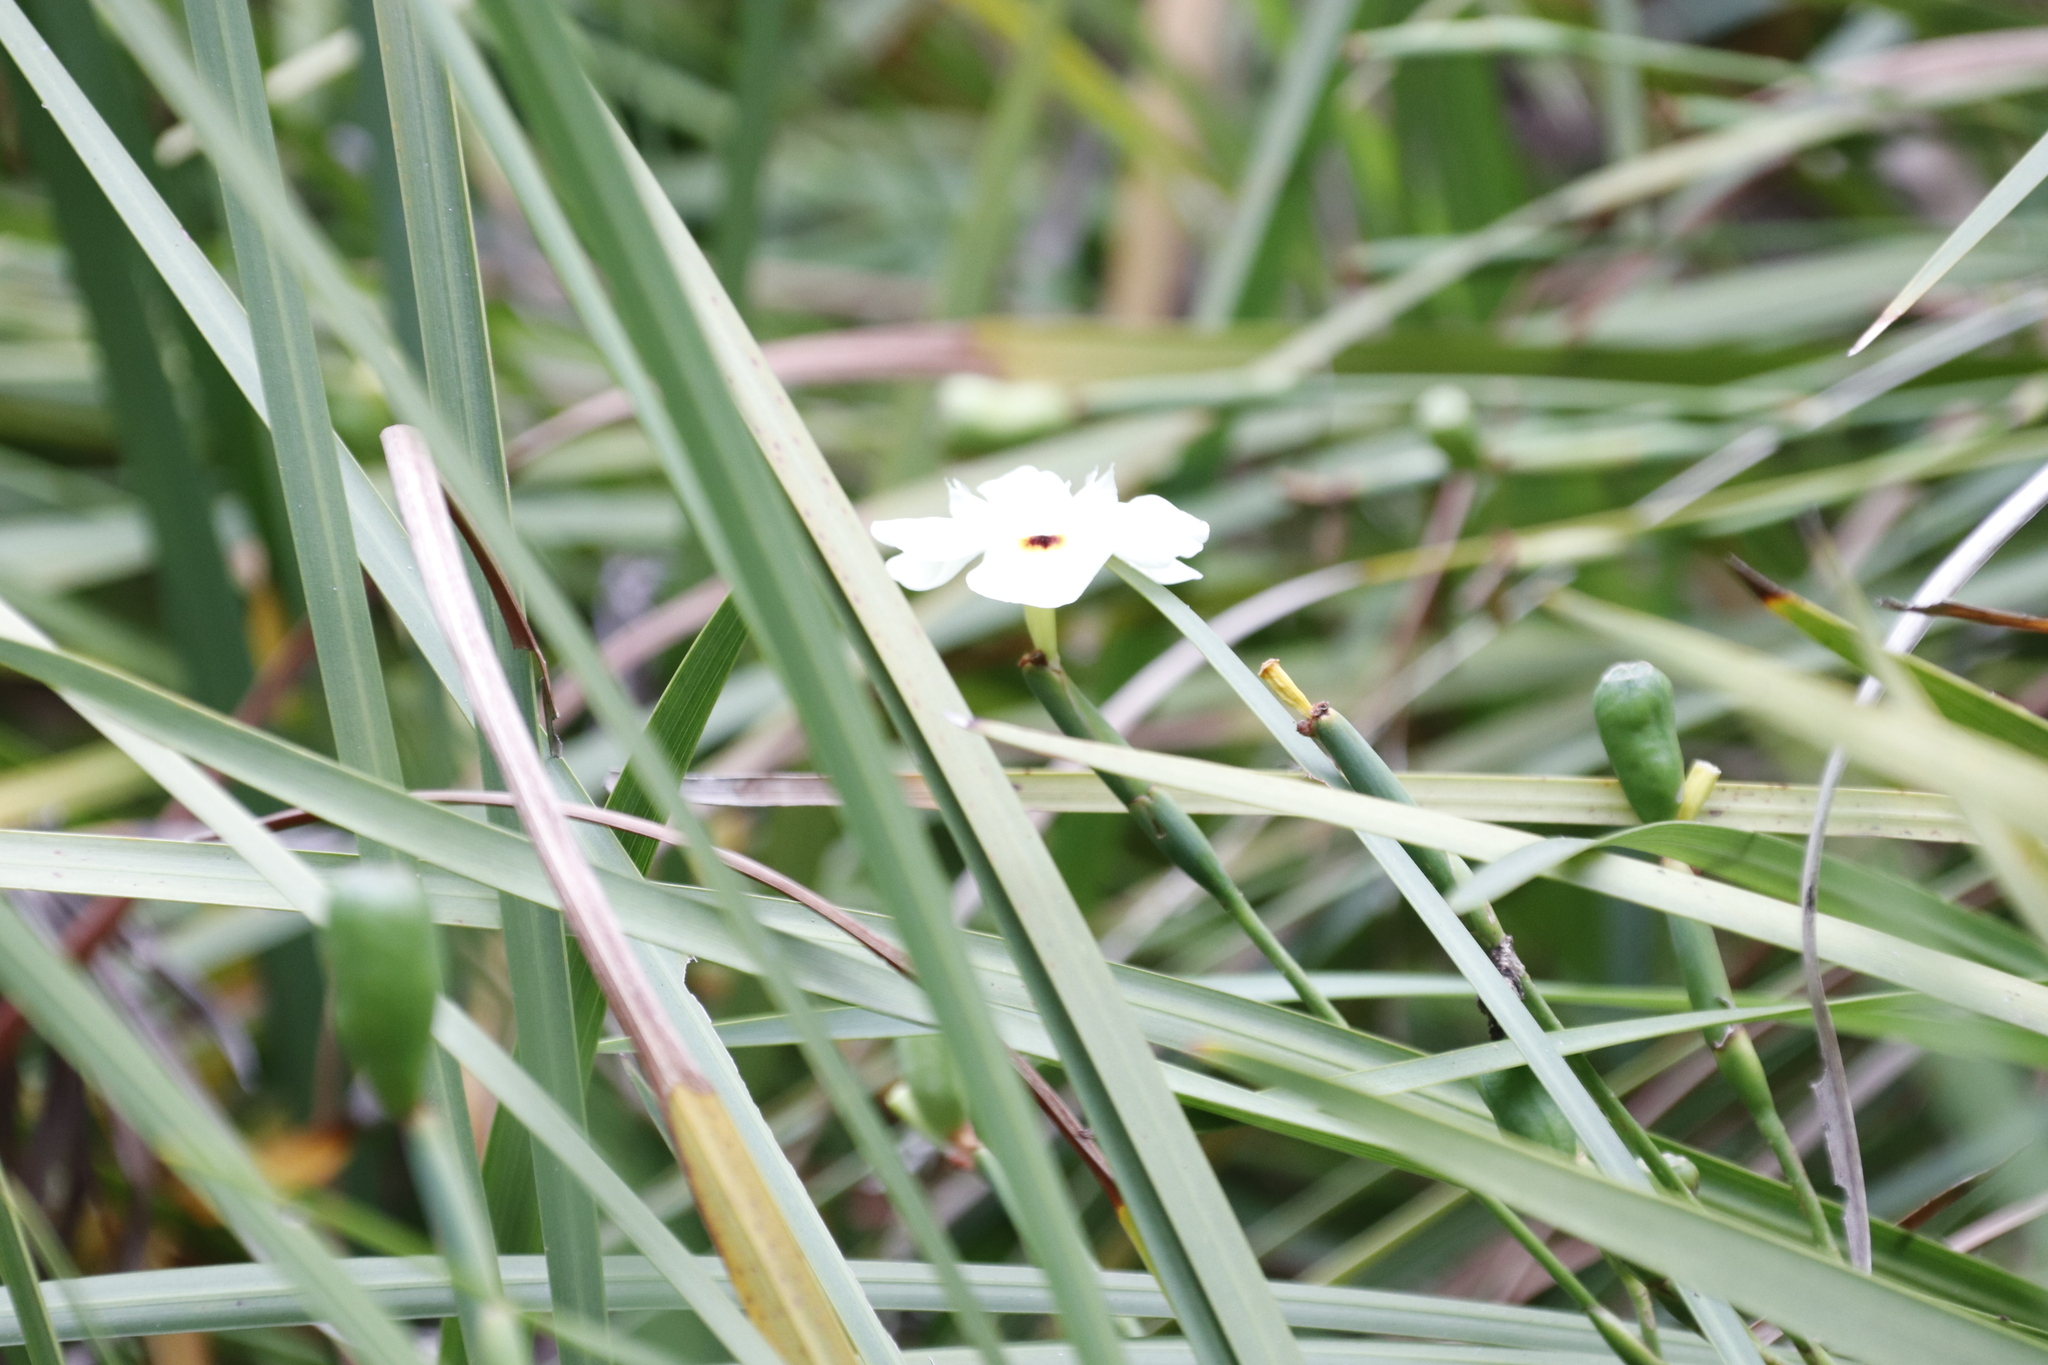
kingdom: Plantae
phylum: Tracheophyta
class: Liliopsida
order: Asparagales
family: Iridaceae
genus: Dietes
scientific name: Dietes bicolor
